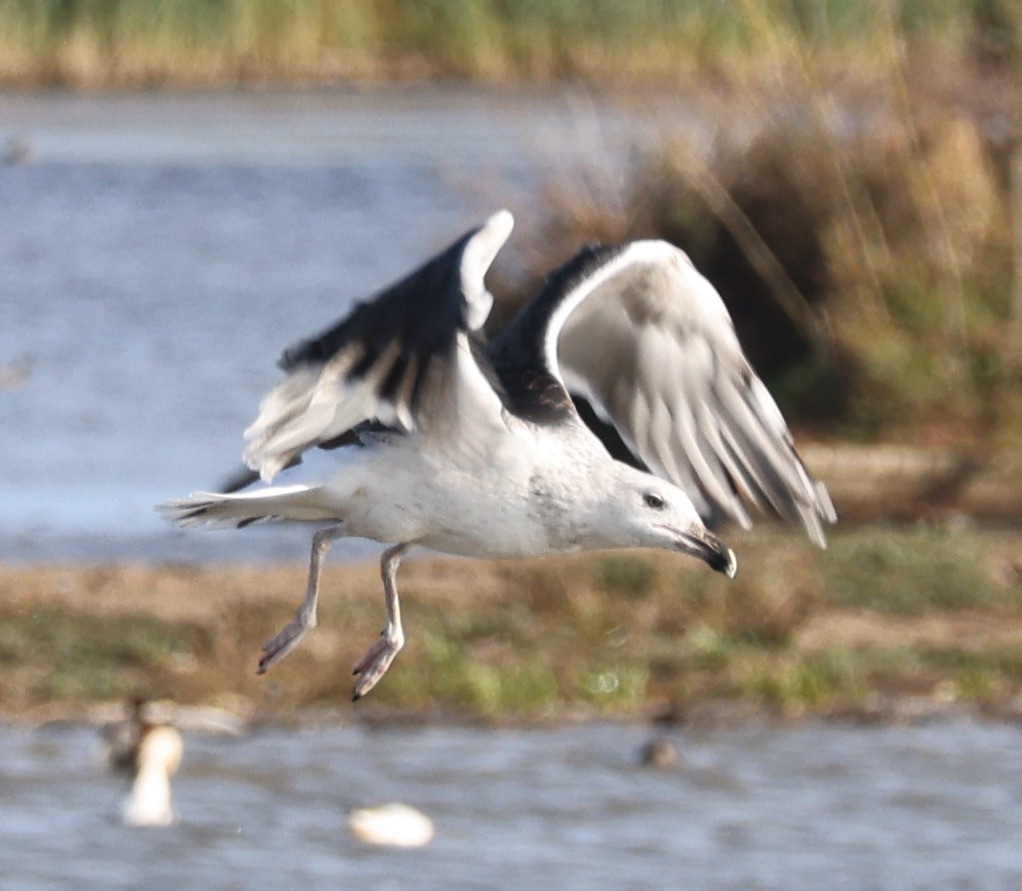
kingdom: Animalia
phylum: Chordata
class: Aves
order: Charadriiformes
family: Laridae
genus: Larus
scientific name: Larus marinus
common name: Great black-backed gull
